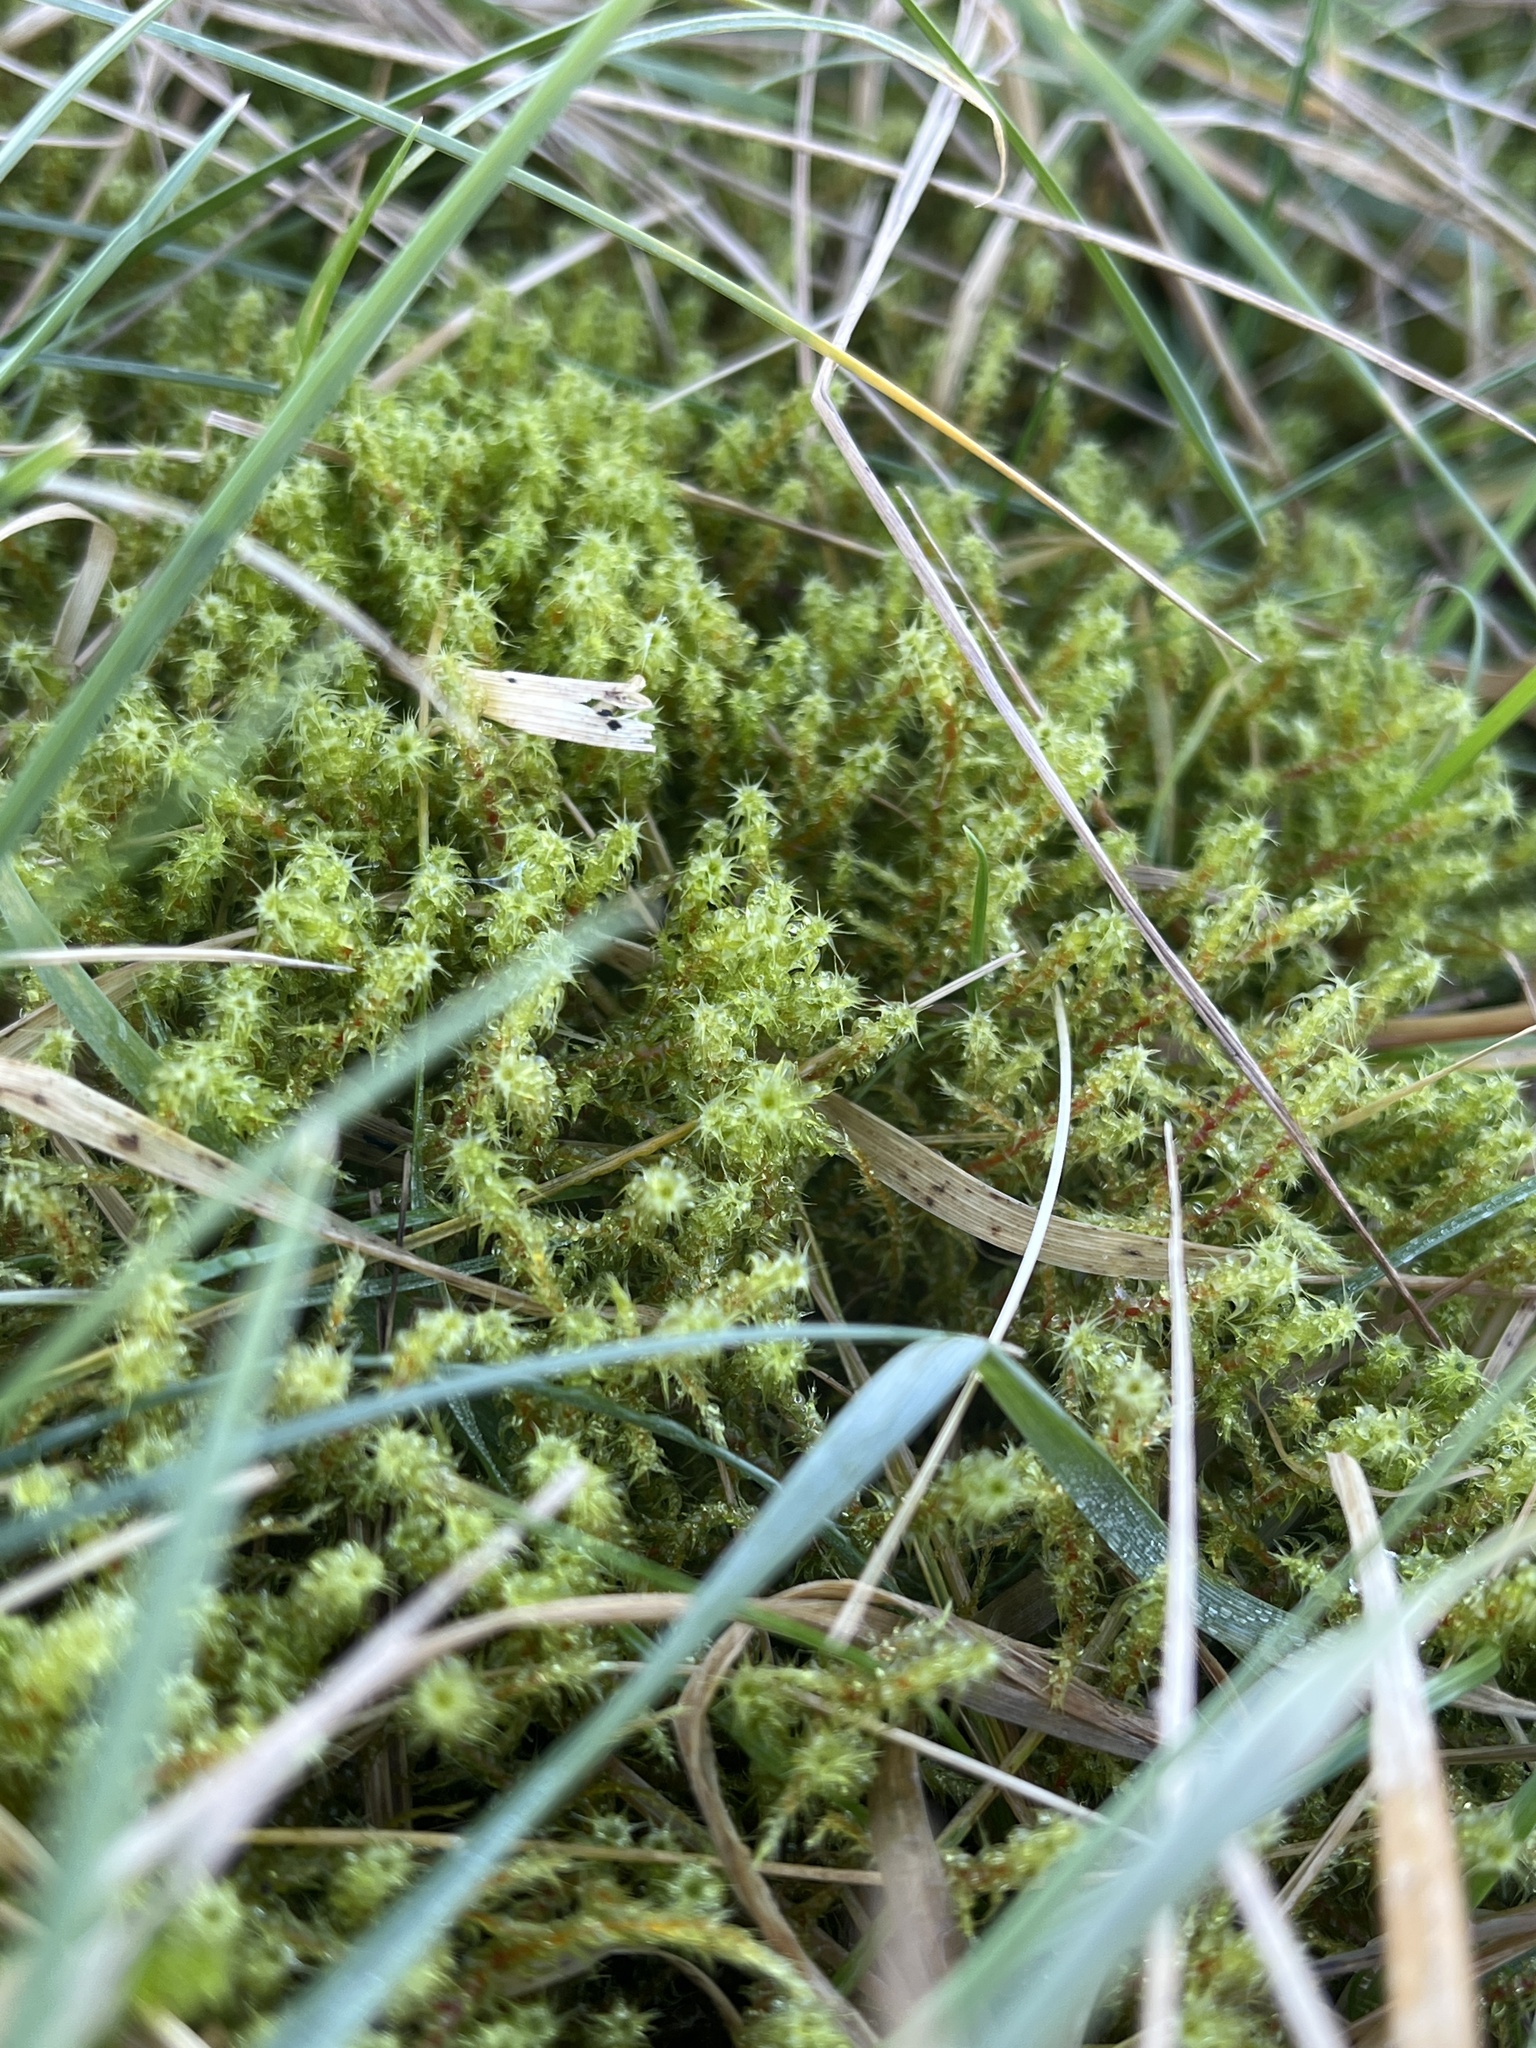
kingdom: Plantae
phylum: Bryophyta
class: Bryopsida
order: Hypnales
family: Hylocomiaceae
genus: Rhytidiadelphus
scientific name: Rhytidiadelphus squarrosus
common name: Springy turf-moss
